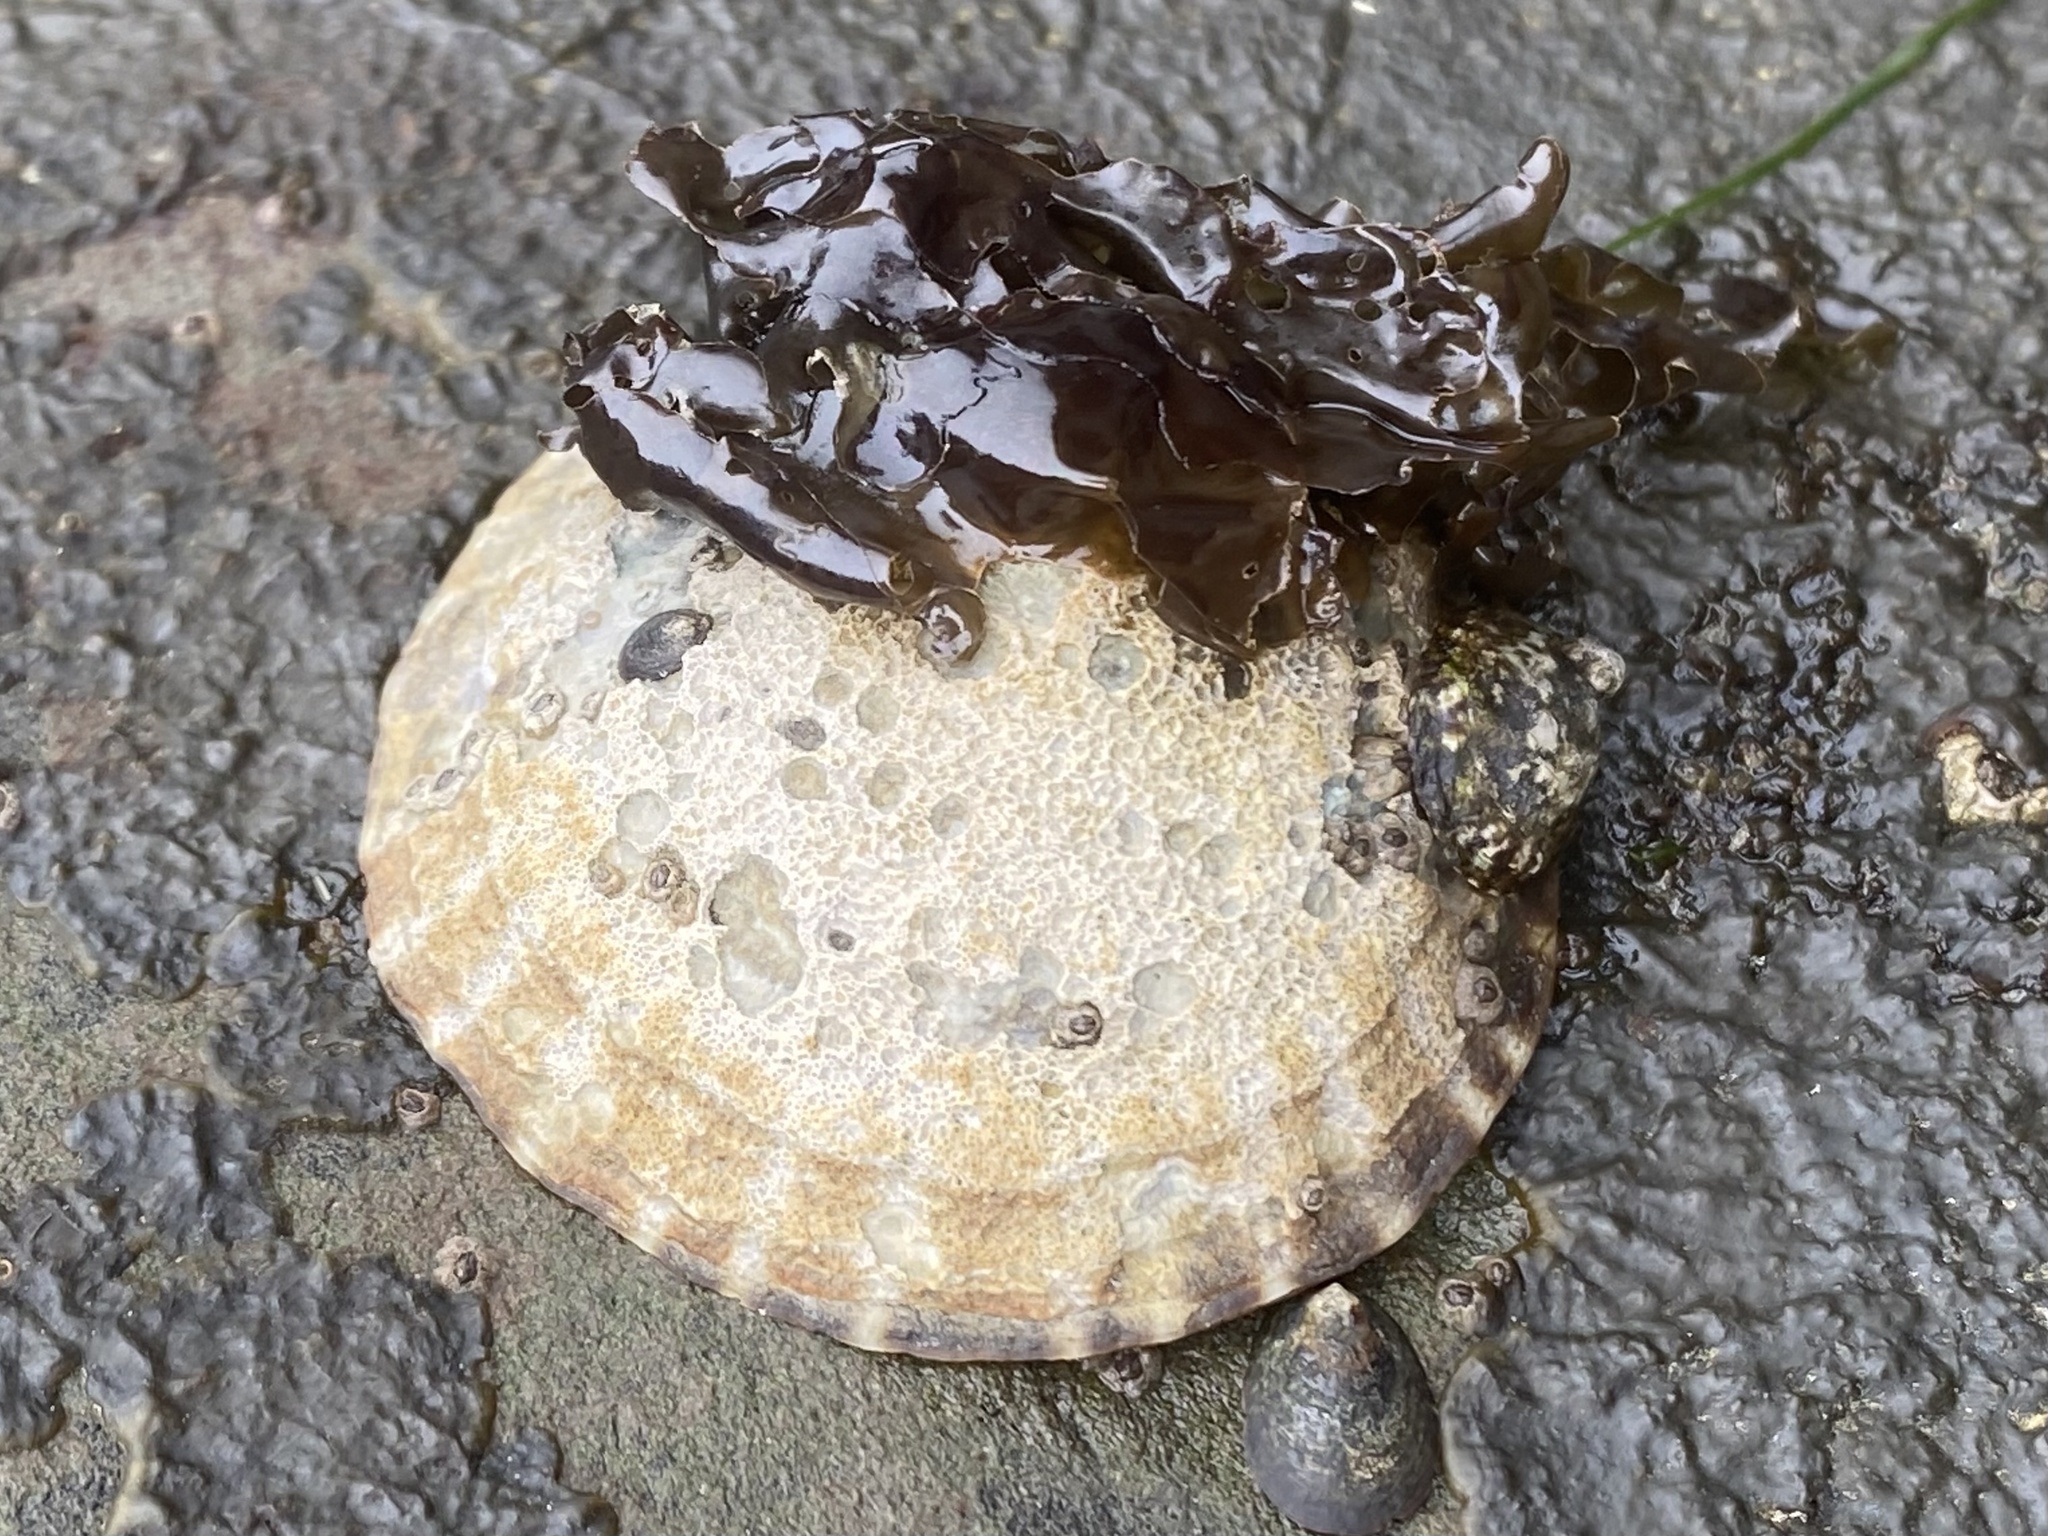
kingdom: Animalia
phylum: Mollusca
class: Gastropoda
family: Lottiidae
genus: Lottia
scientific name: Lottia gigantea
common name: Owl limpet
